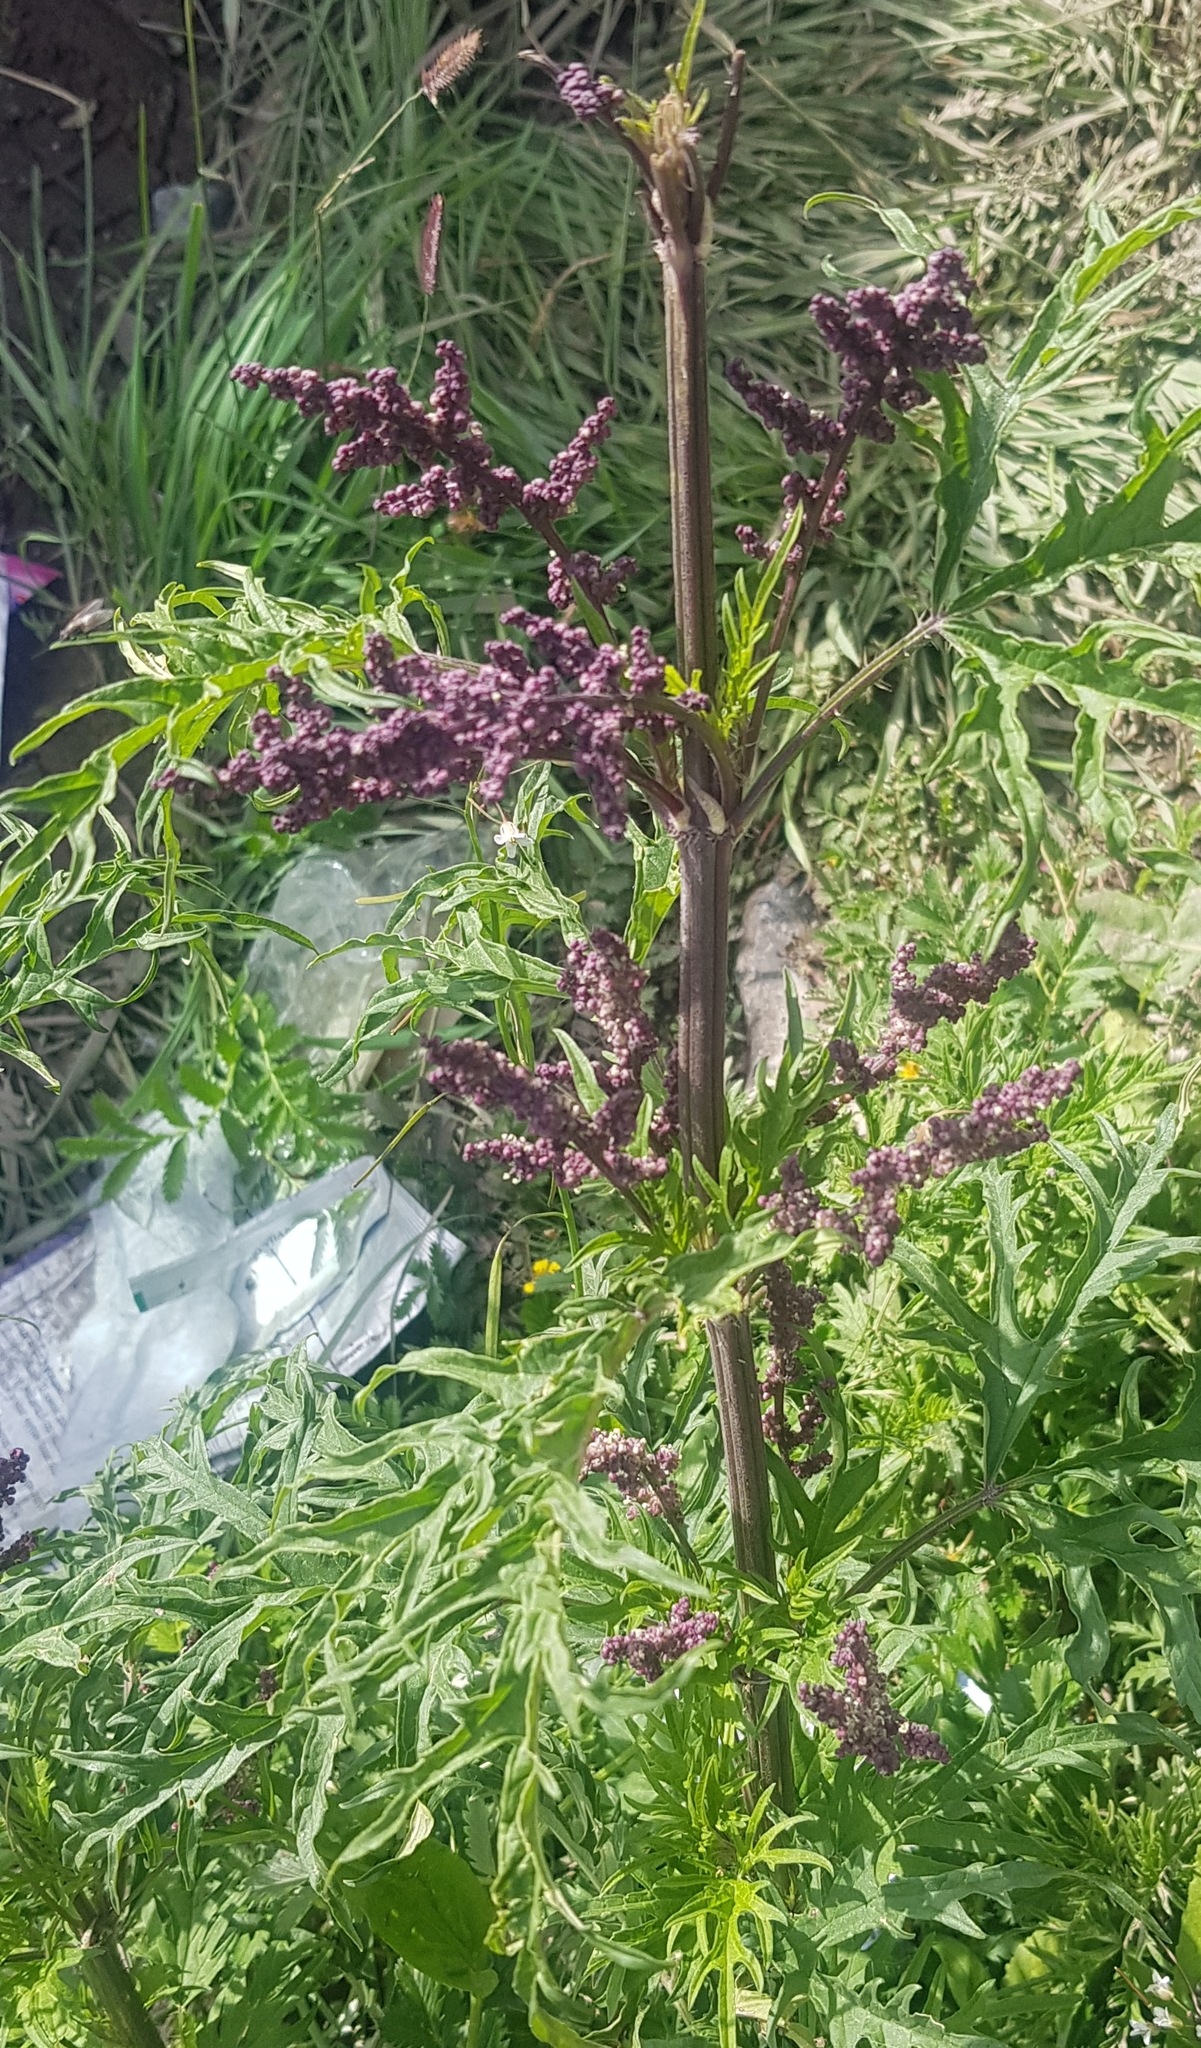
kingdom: Plantae
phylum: Tracheophyta
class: Magnoliopsida
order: Rosales
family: Urticaceae
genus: Urtica
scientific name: Urtica cannabina
